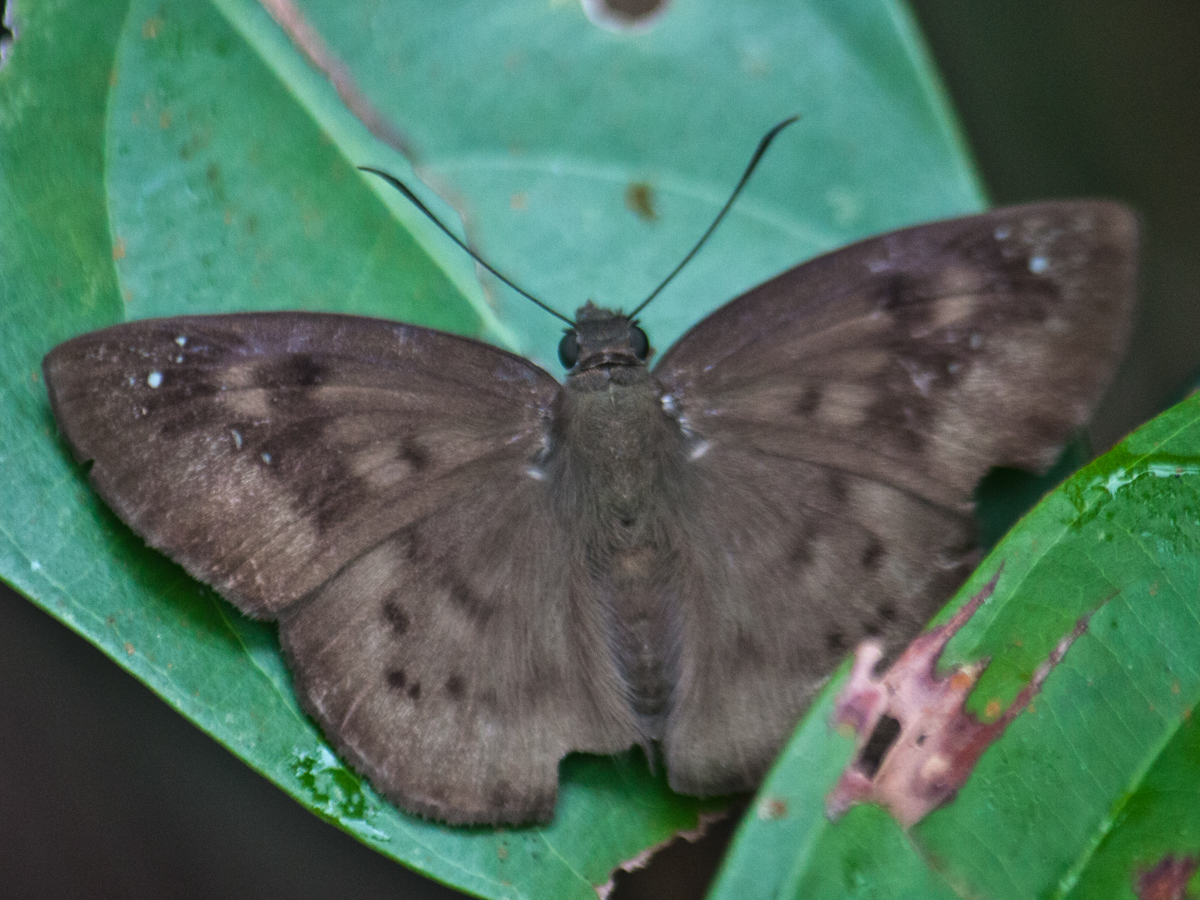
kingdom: Animalia
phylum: Arthropoda
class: Insecta
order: Lepidoptera
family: Hesperiidae
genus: Tagiades
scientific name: Tagiades japetus
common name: Pied flat
